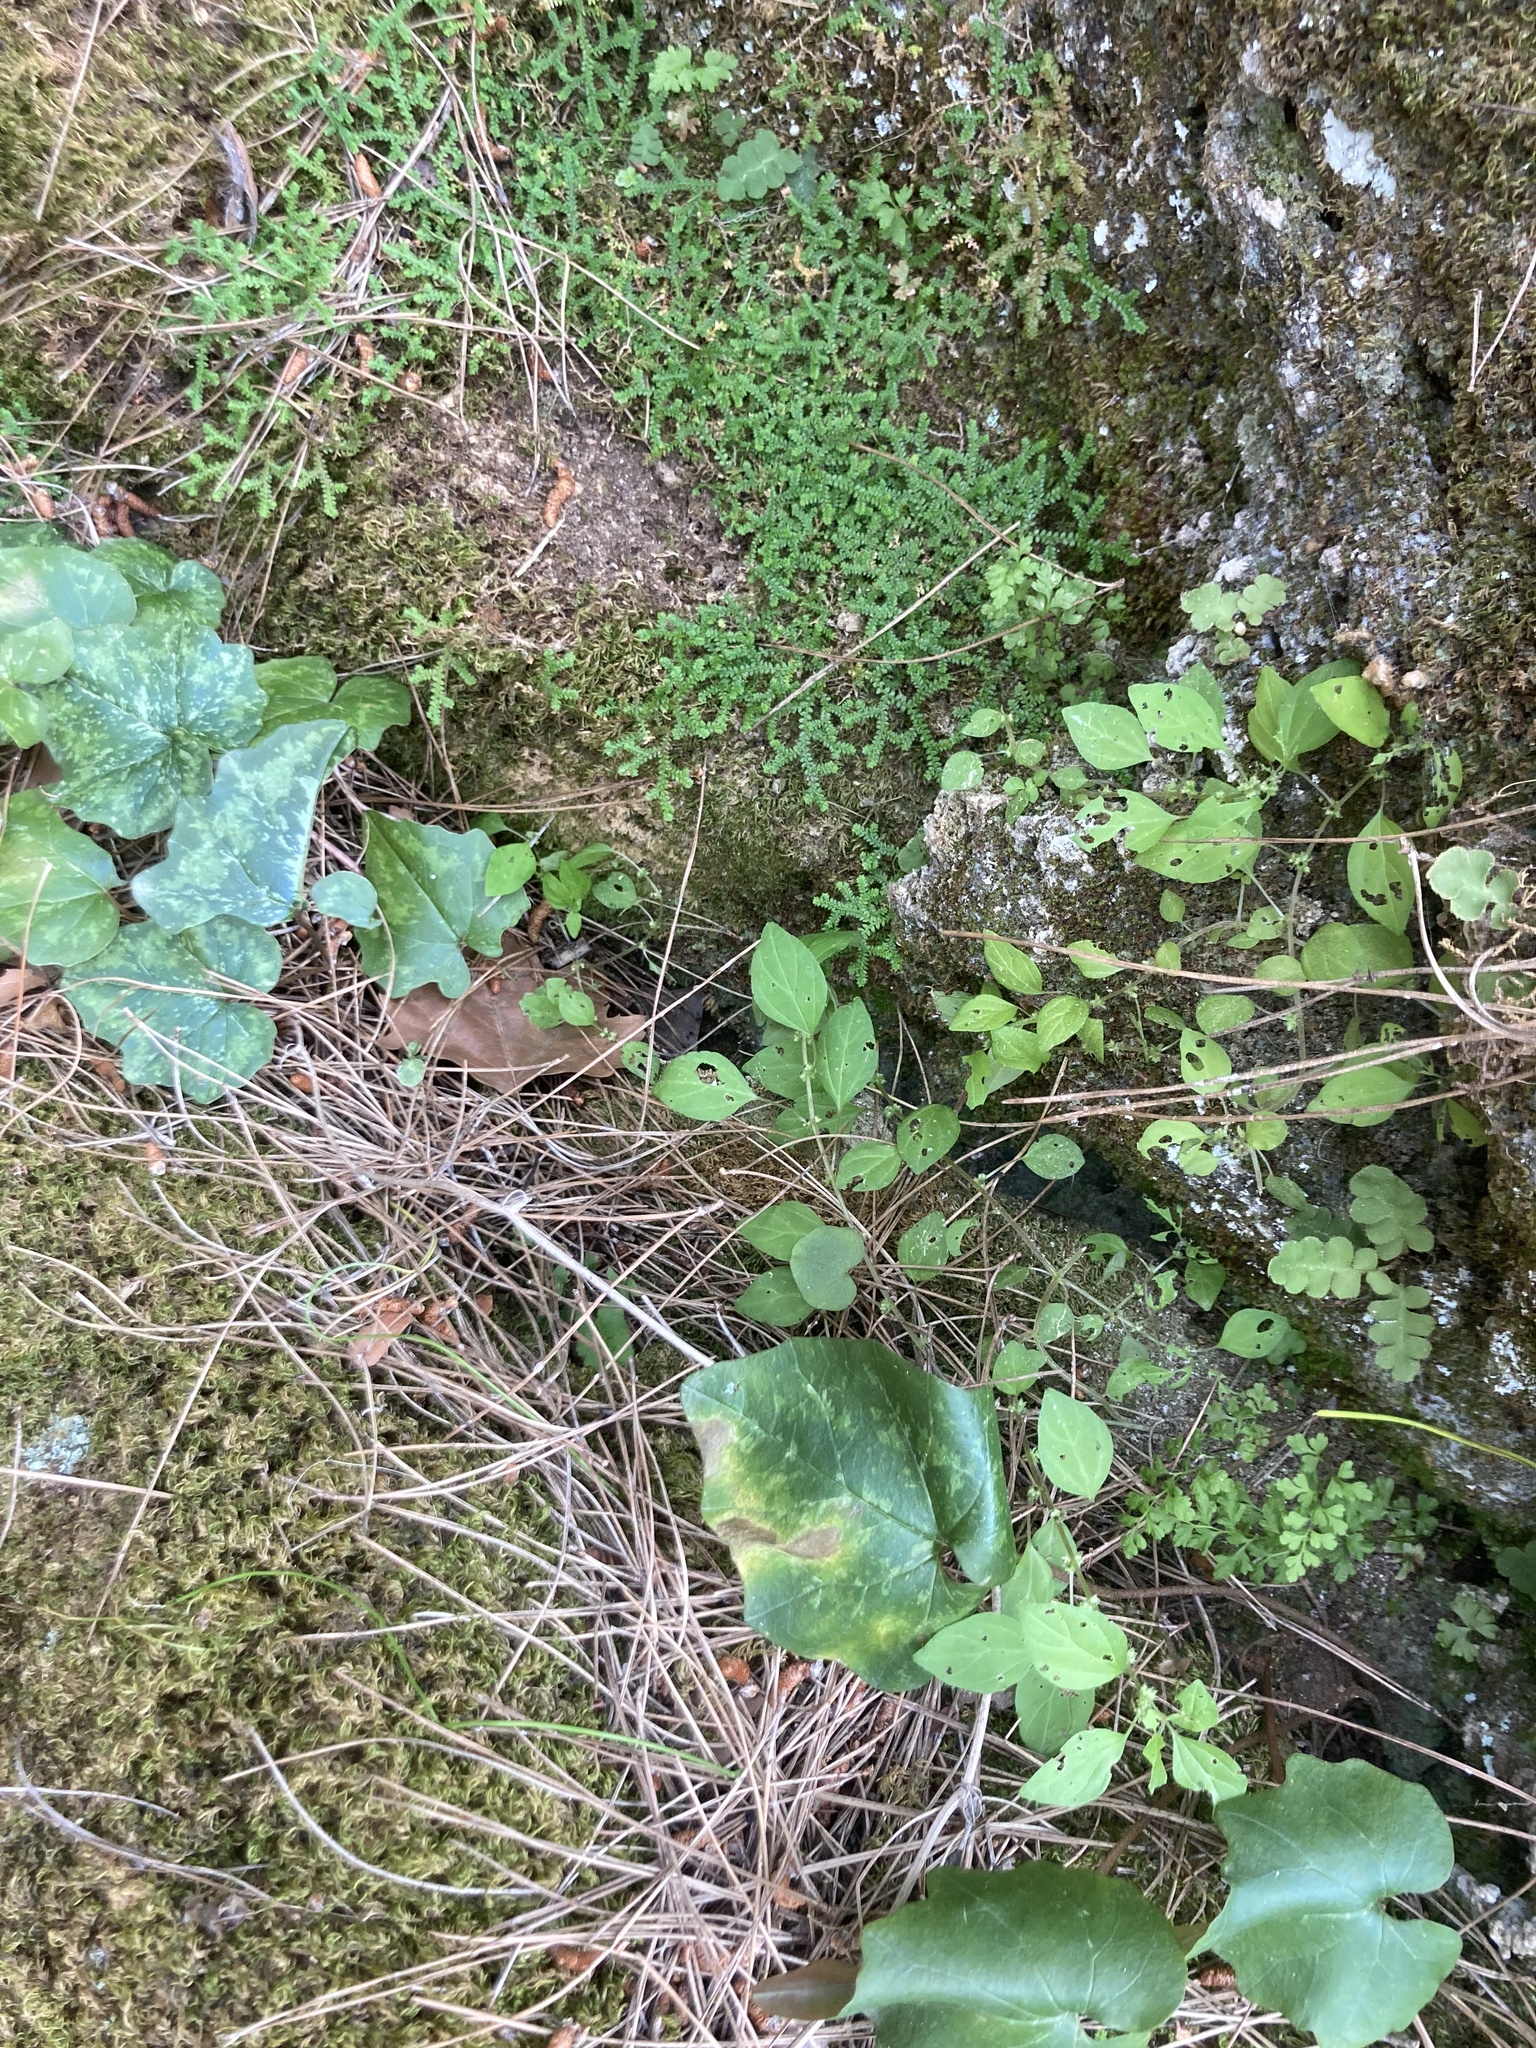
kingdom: Plantae
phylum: Tracheophyta
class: Lycopodiopsida
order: Selaginellales
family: Selaginellaceae
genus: Selaginella
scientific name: Selaginella denticulata
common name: Toothed-leaved clubmoss
